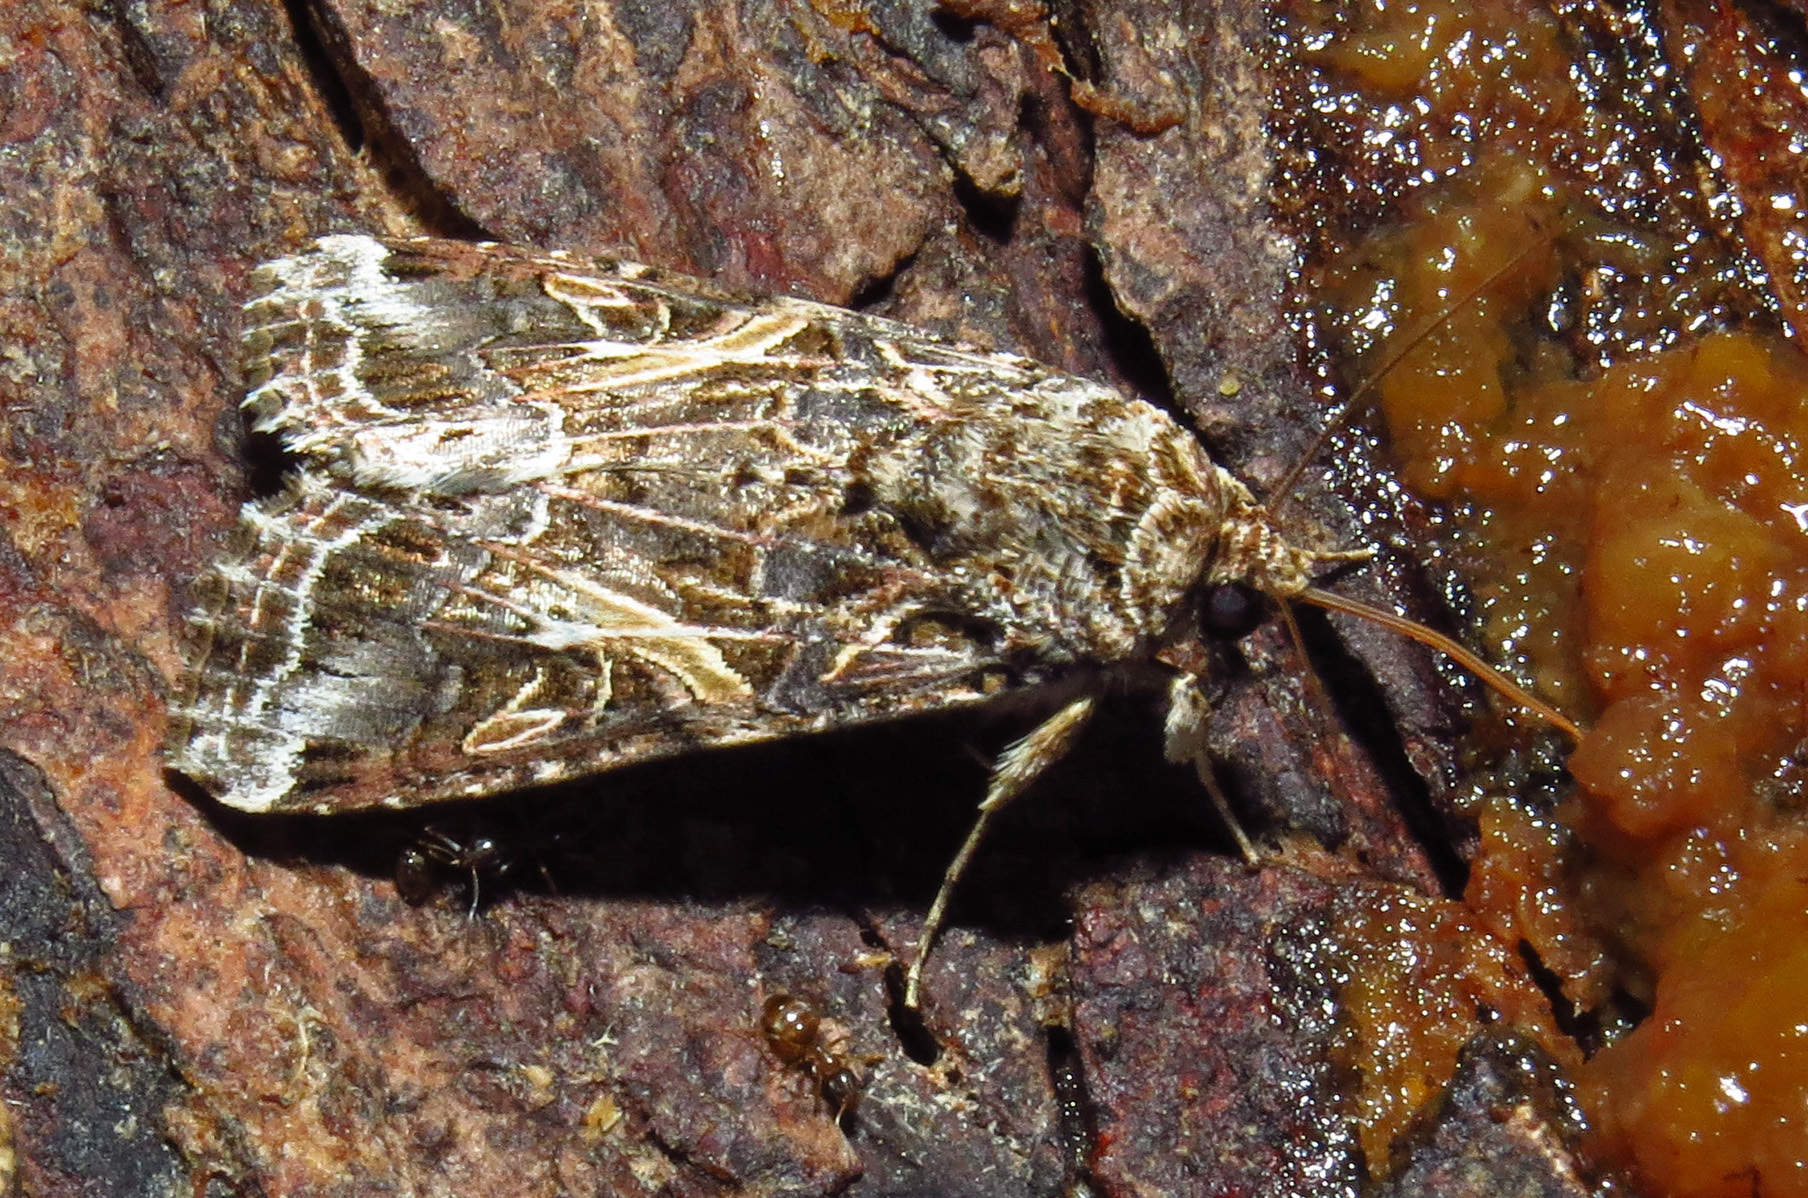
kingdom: Animalia
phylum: Arthropoda
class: Insecta
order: Lepidoptera
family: Noctuidae
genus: Spodoptera
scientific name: Spodoptera ornithogalli
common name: Yellow-striped armyworm
